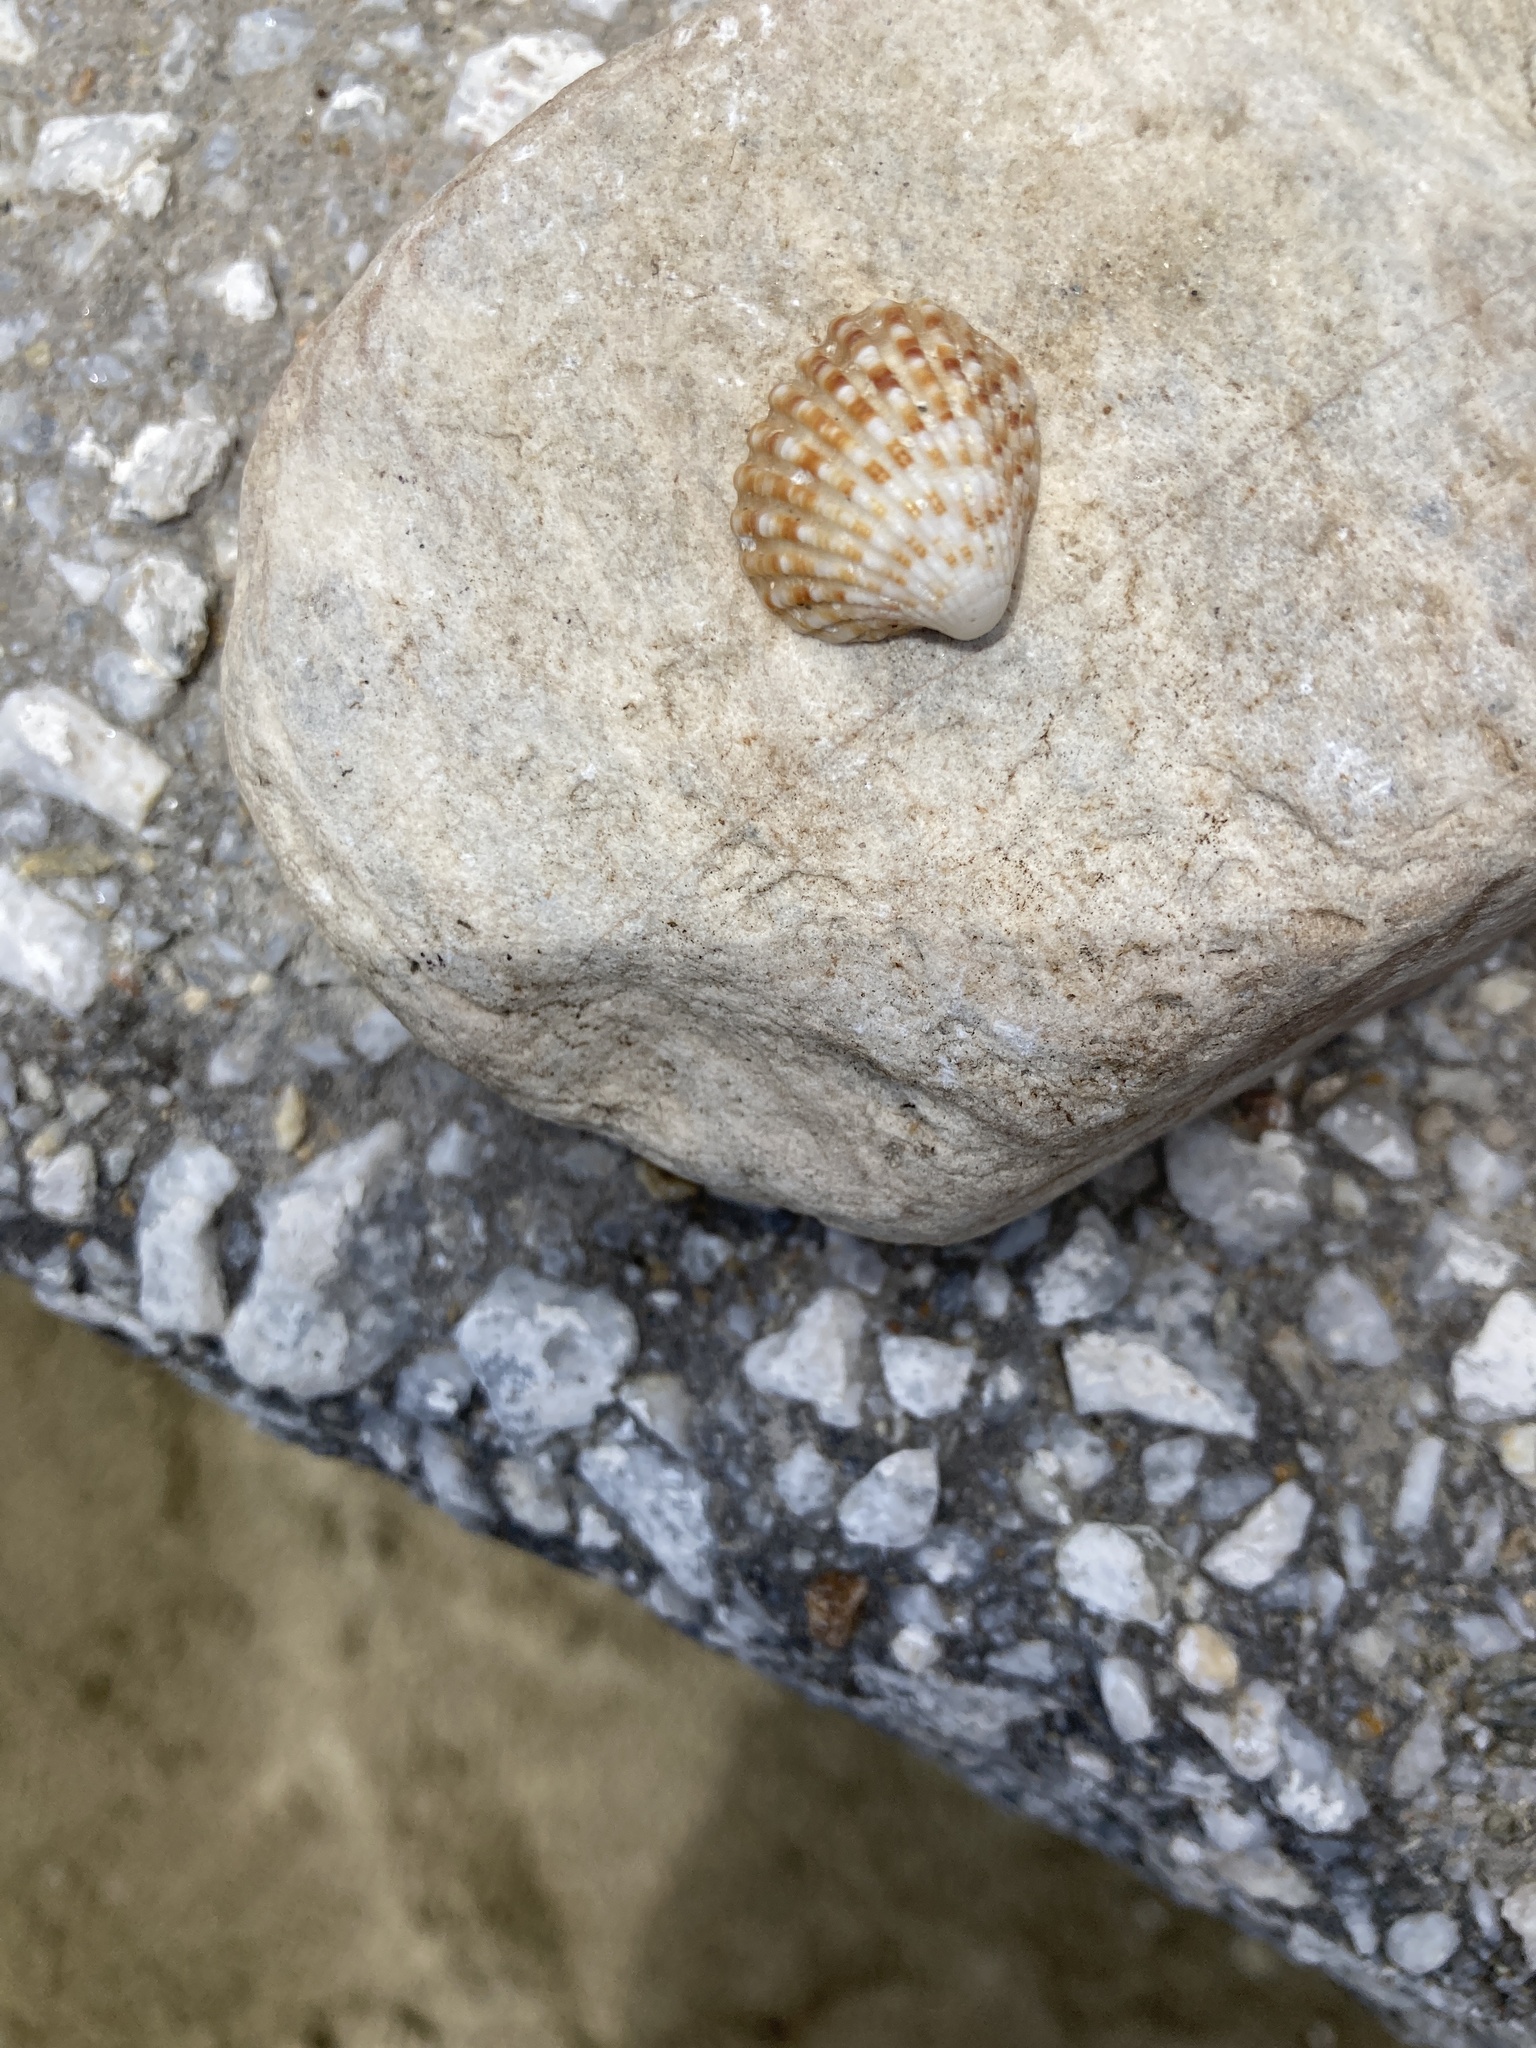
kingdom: Animalia
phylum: Mollusca
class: Bivalvia
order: Carditida
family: Carditidae
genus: Cardites
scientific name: Cardites antiquatus
